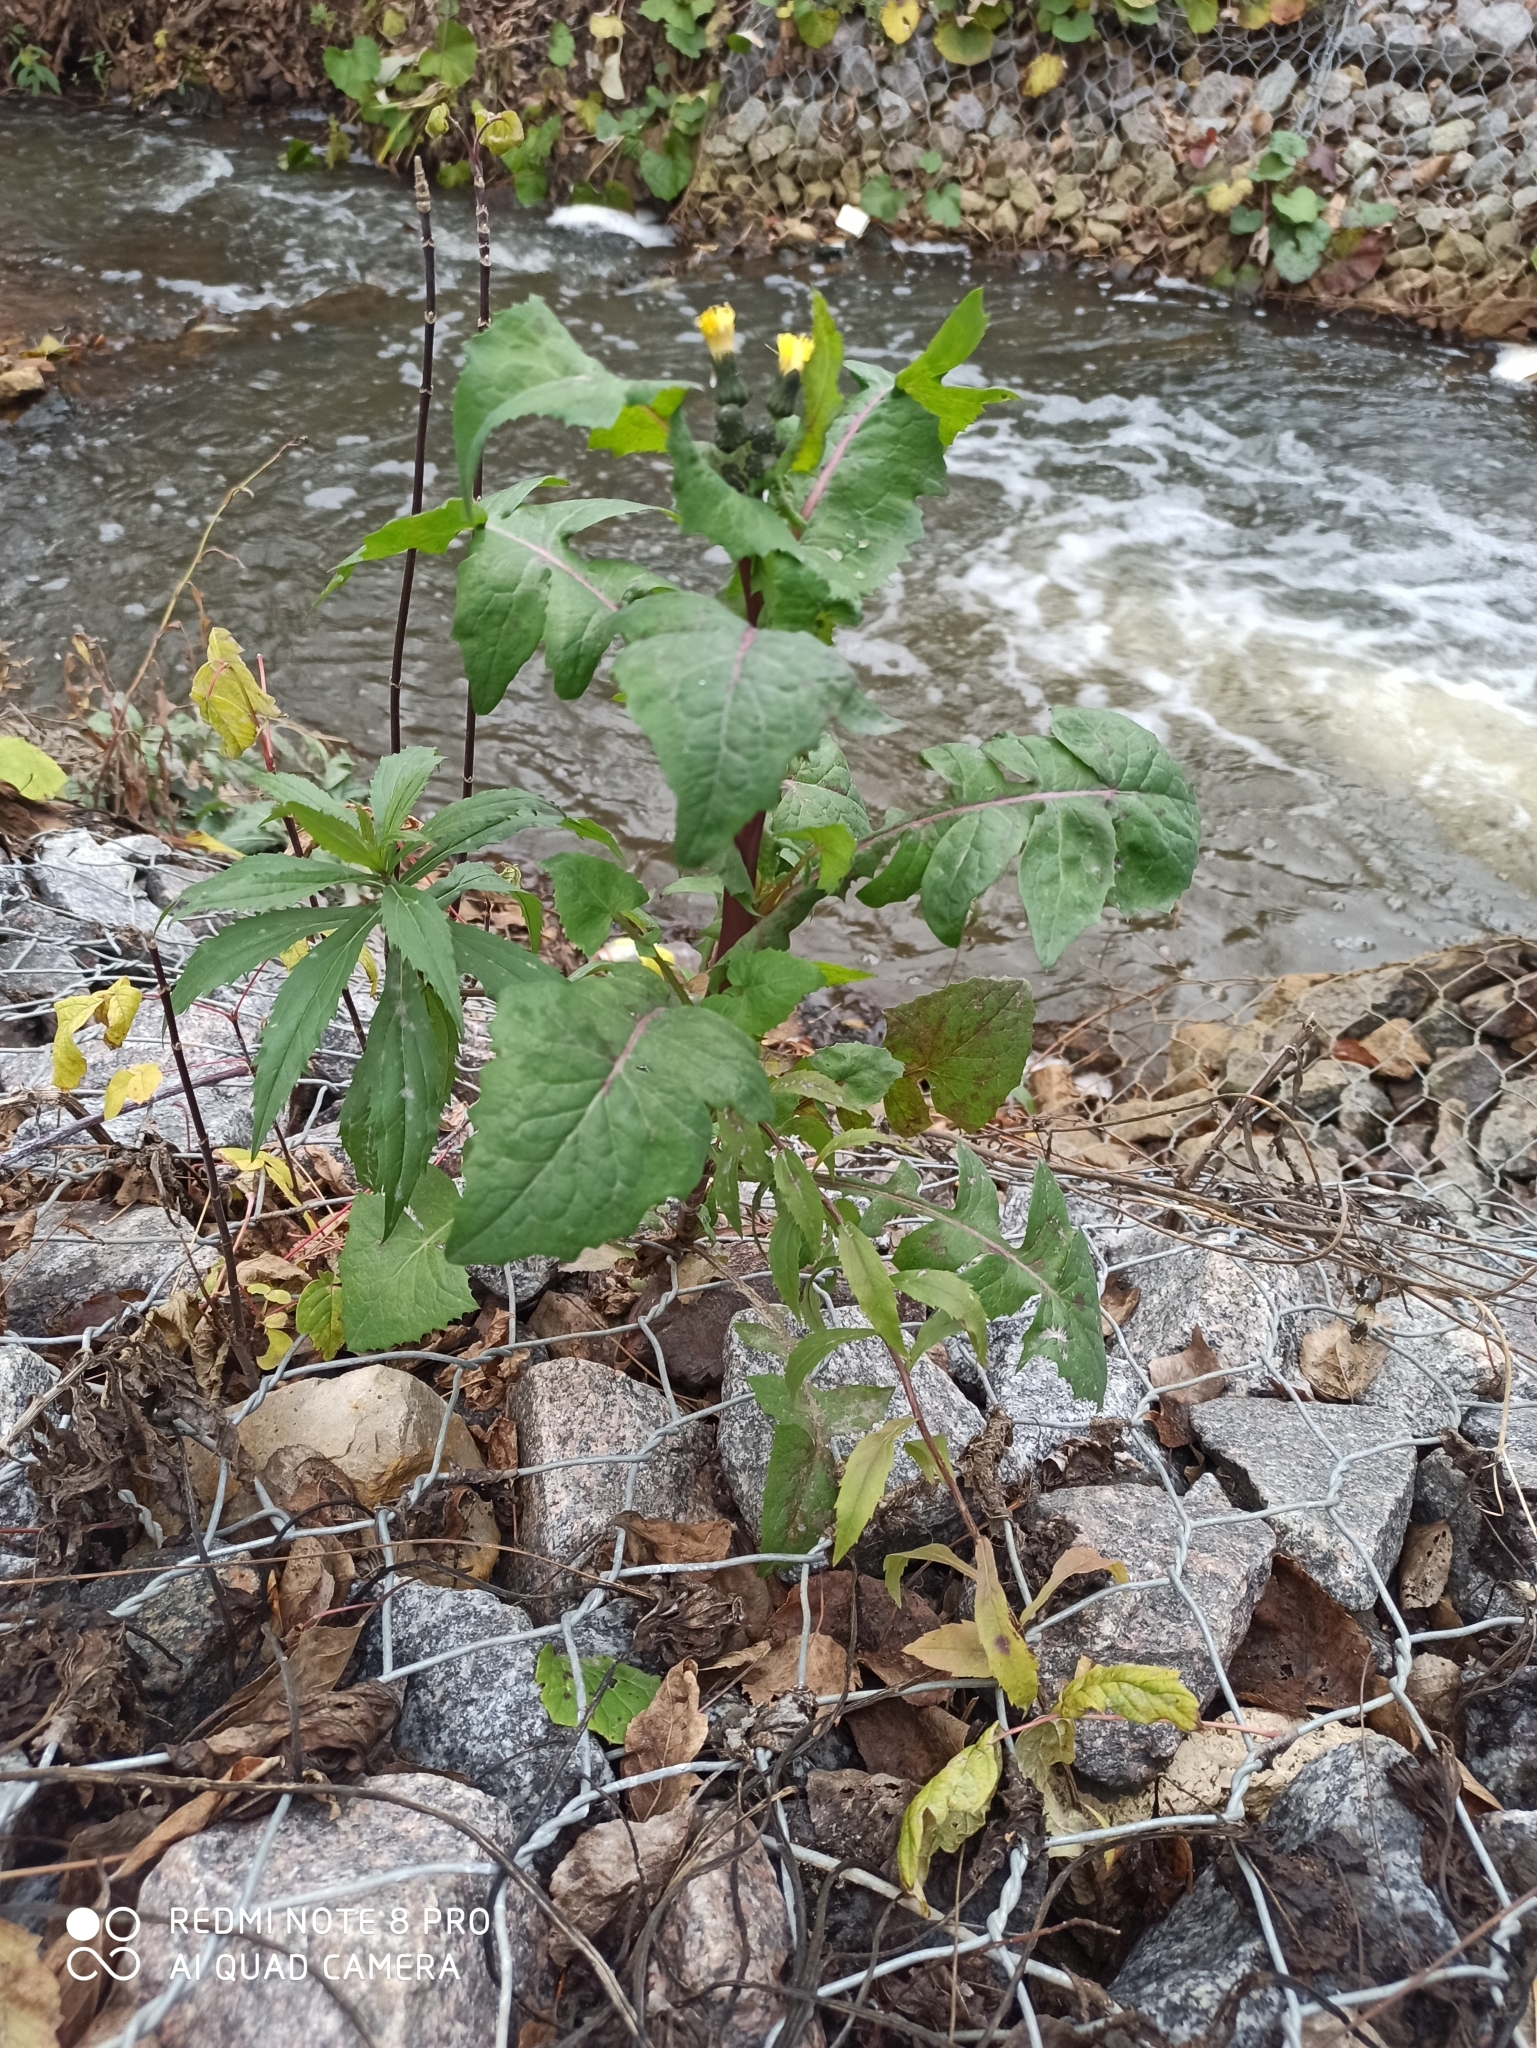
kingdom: Plantae
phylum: Tracheophyta
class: Magnoliopsida
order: Asterales
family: Asteraceae
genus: Sonchus
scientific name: Sonchus arvensis
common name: Perennial sow-thistle
